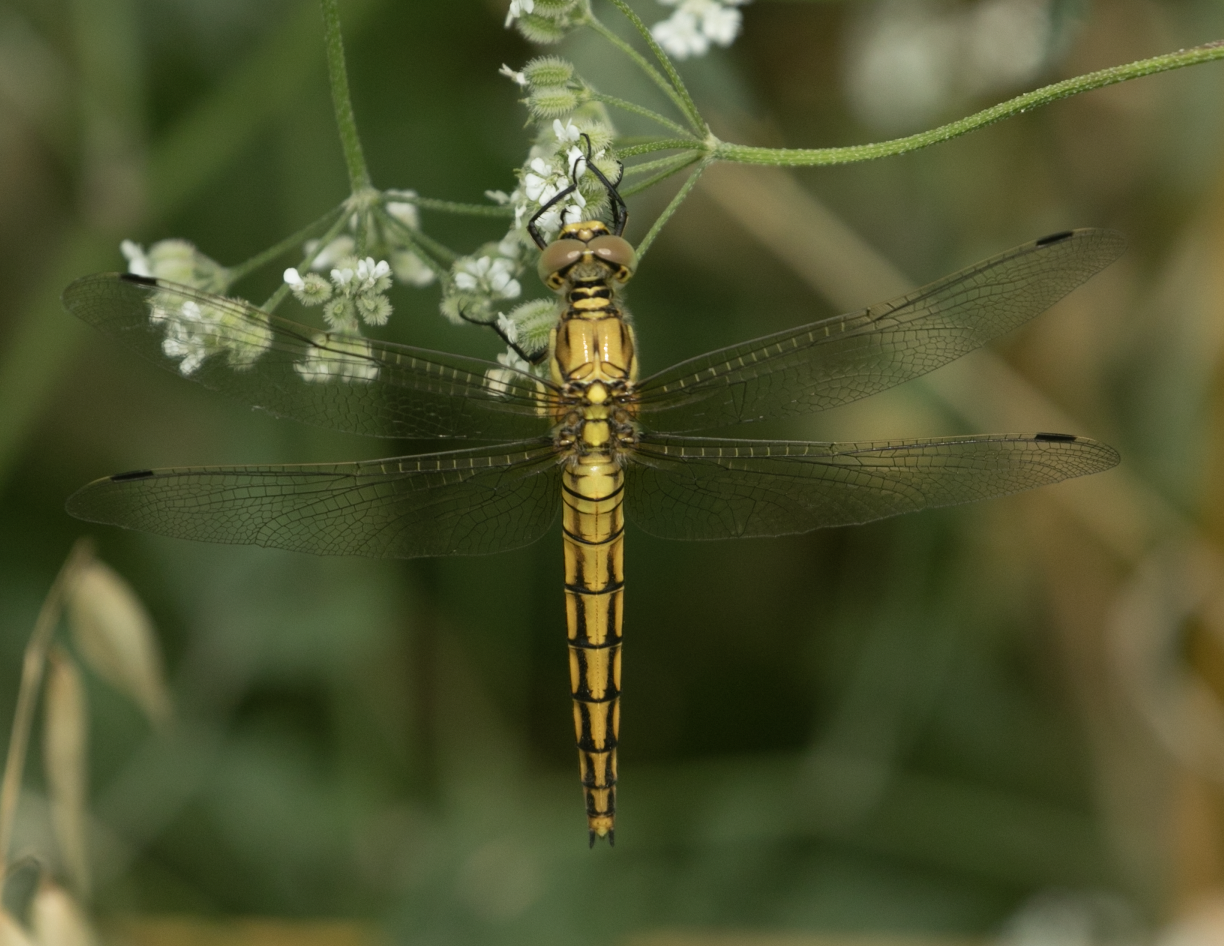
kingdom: Animalia
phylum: Arthropoda
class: Insecta
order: Odonata
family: Libellulidae
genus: Orthetrum
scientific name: Orthetrum cancellatum
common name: Black-tailed skimmer
